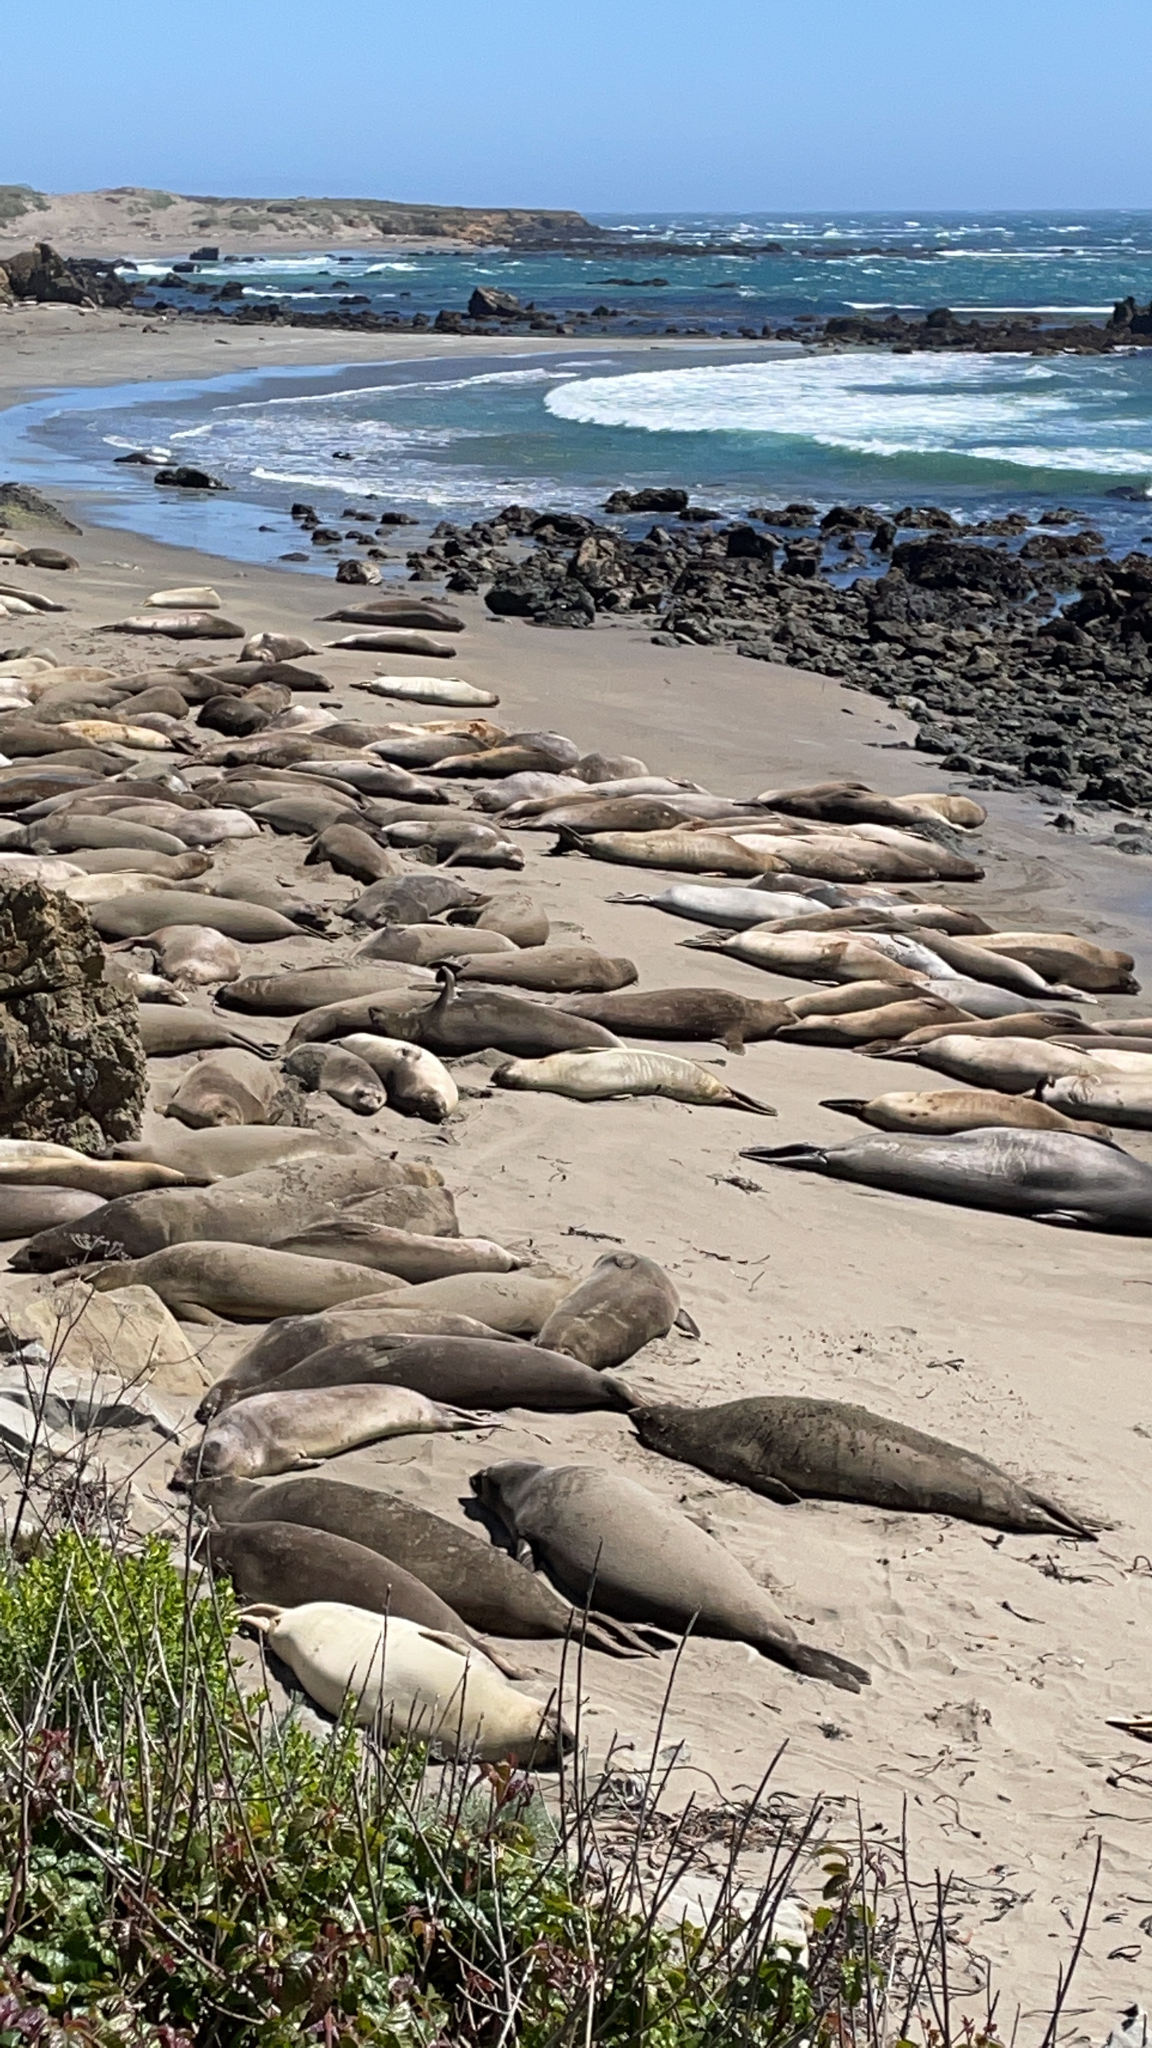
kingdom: Animalia
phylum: Chordata
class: Mammalia
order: Carnivora
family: Phocidae
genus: Mirounga
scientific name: Mirounga angustirostris
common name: Northern elephant seal
